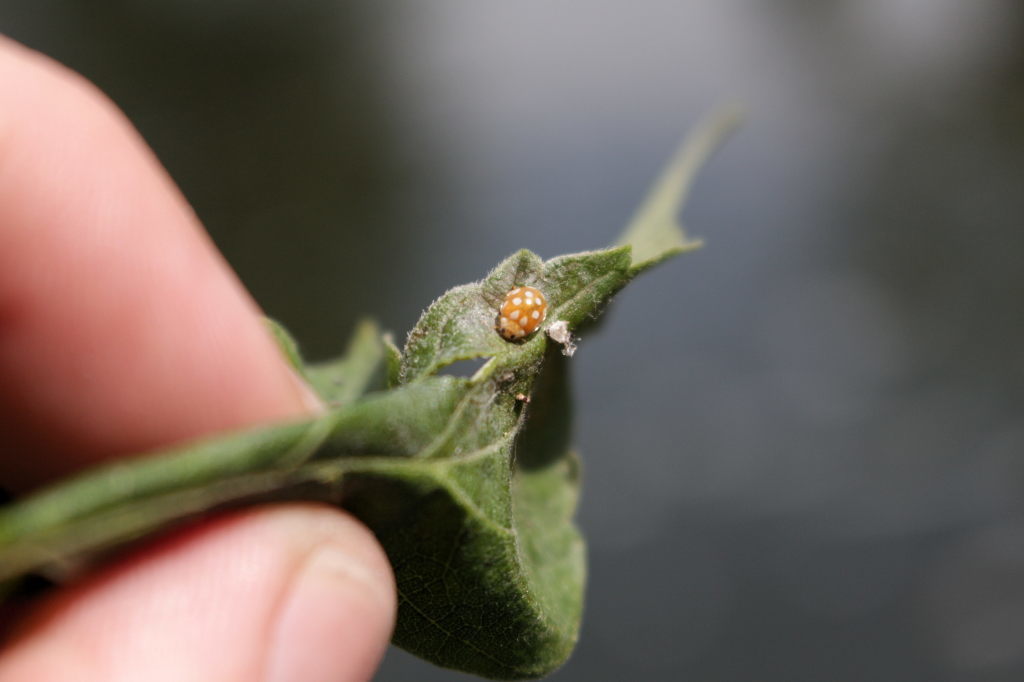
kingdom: Animalia
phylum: Arthropoda
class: Insecta
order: Coleoptera
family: Coccinellidae
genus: Vibidia
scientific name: Vibidia duodecimguttata
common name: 12-spot ladybird
